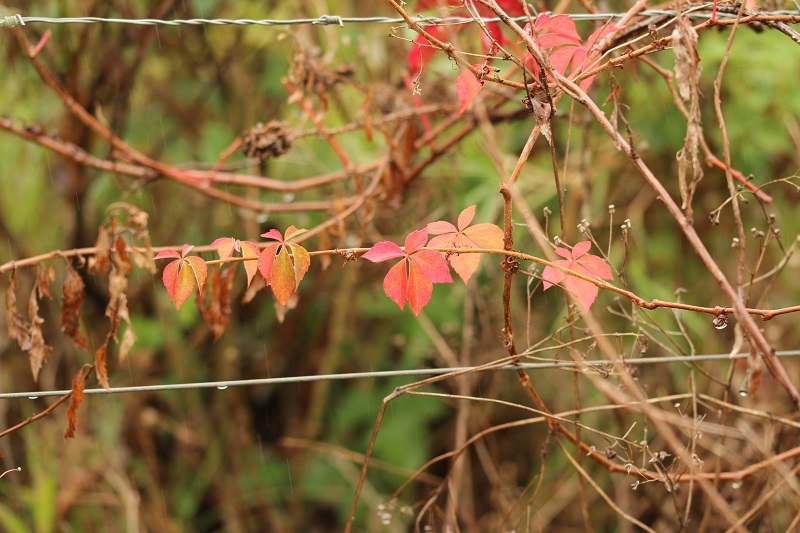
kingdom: Plantae
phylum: Tracheophyta
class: Magnoliopsida
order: Vitales
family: Vitaceae
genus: Parthenocissus
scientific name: Parthenocissus quinquefolia
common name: Virginia-creeper
